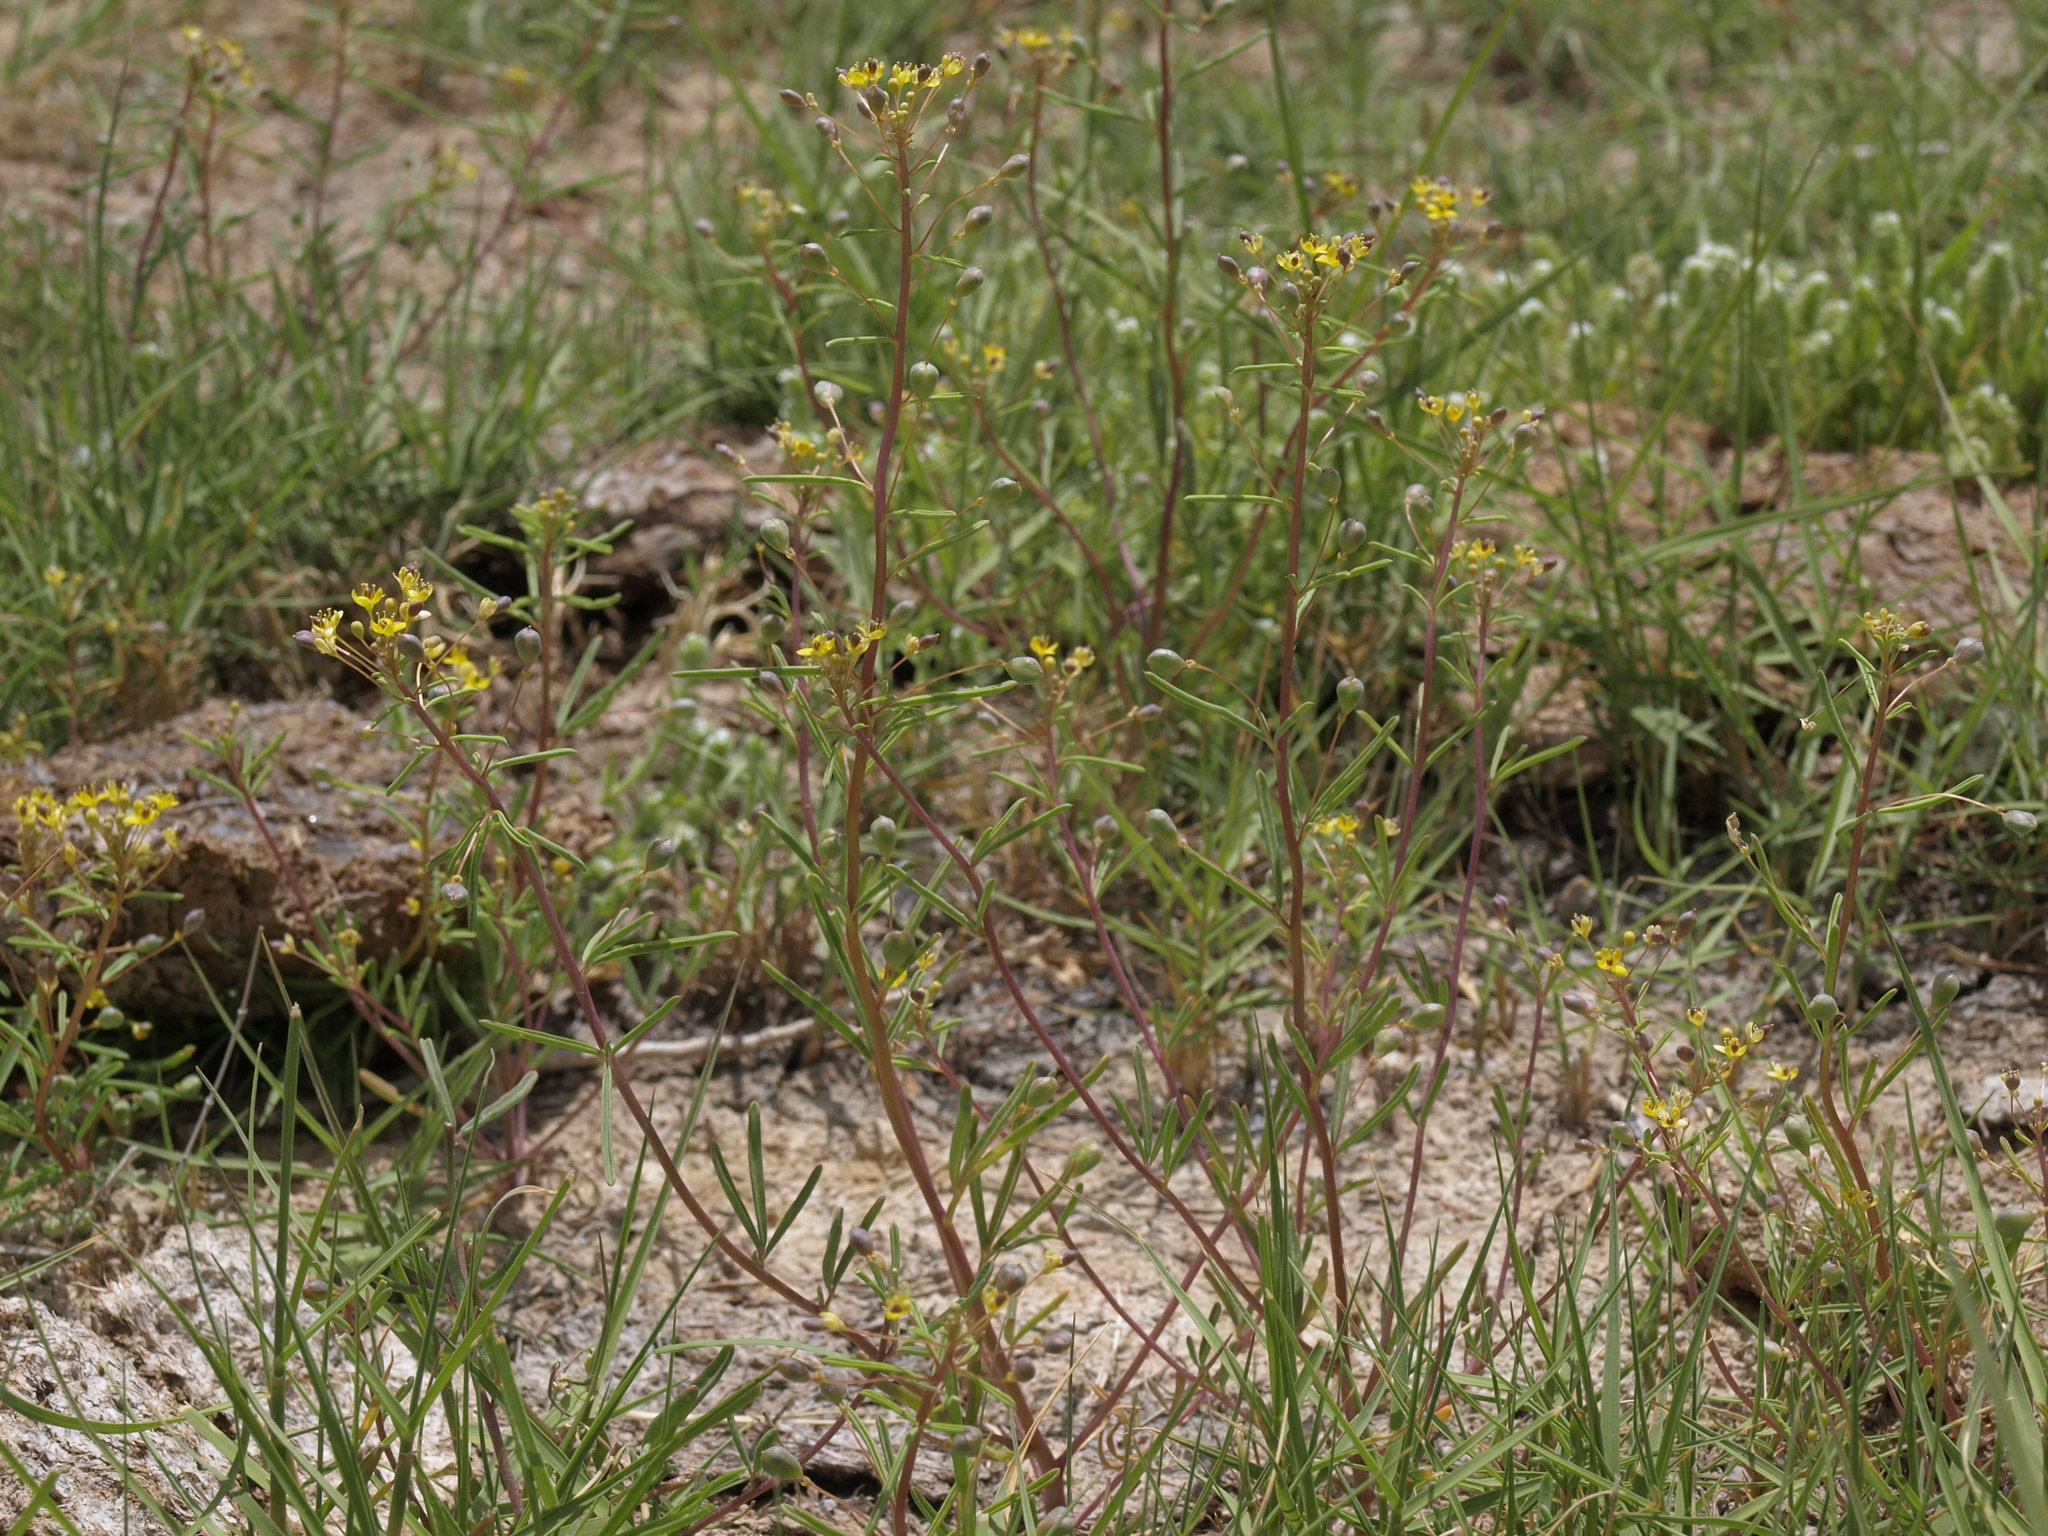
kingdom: Plantae
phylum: Tracheophyta
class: Magnoliopsida
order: Brassicales
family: Cleomaceae
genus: Cleomella
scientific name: Cleomella parviflora
